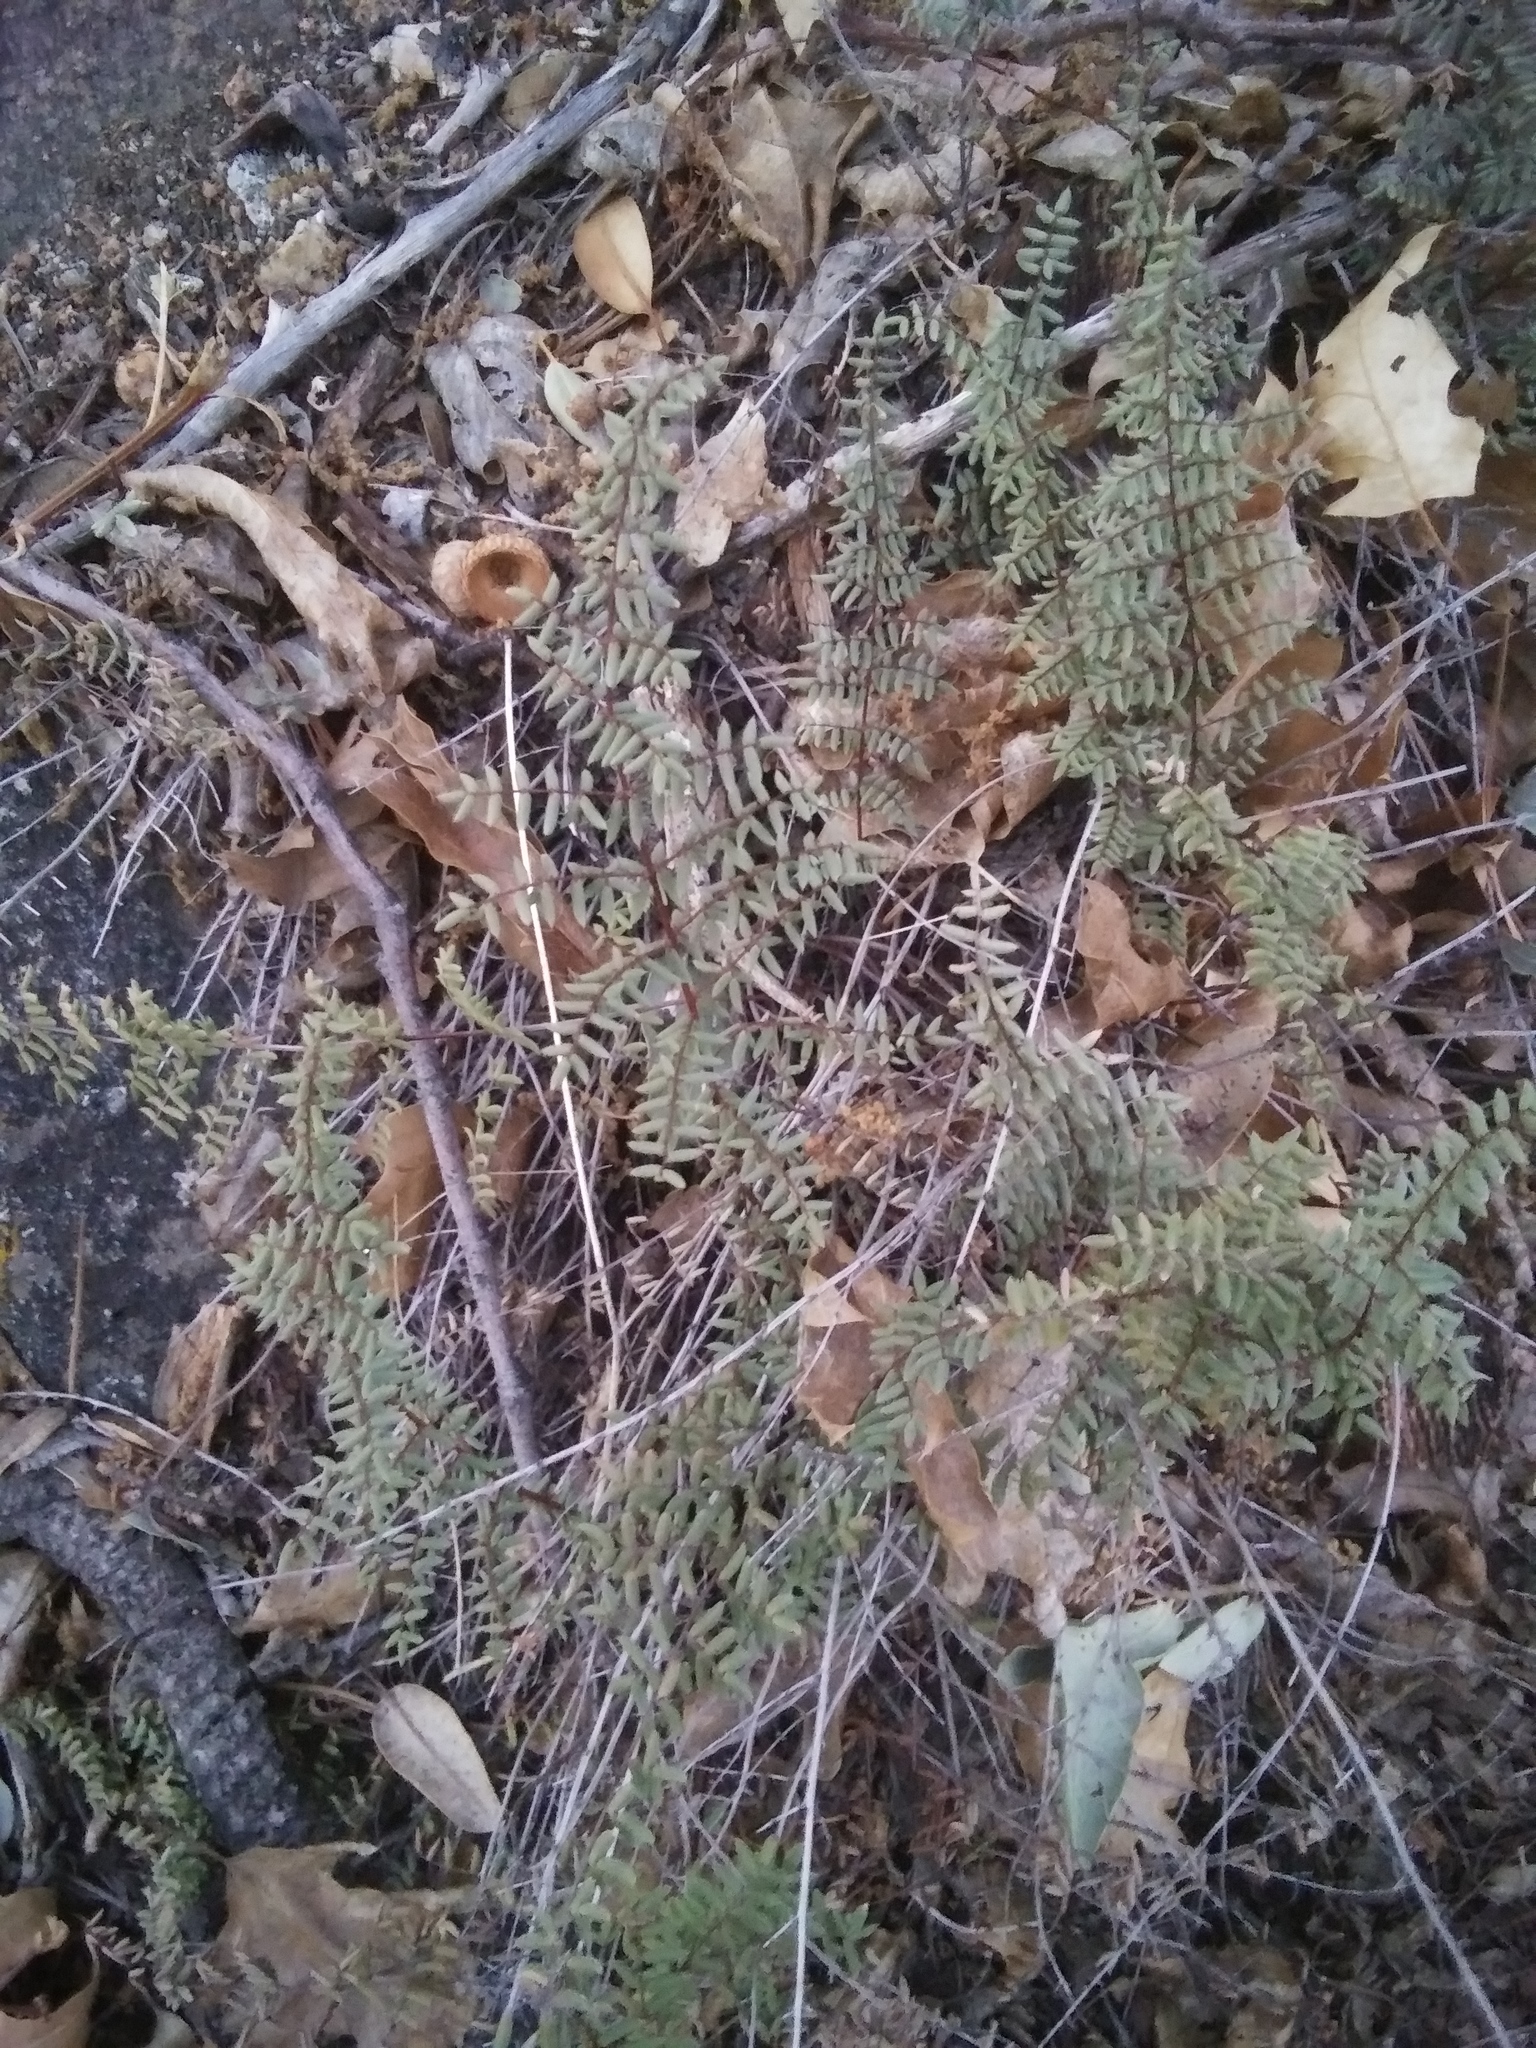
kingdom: Plantae
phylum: Tracheophyta
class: Polypodiopsida
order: Polypodiales
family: Pteridaceae
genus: Pellaea
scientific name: Pellaea mucronata
